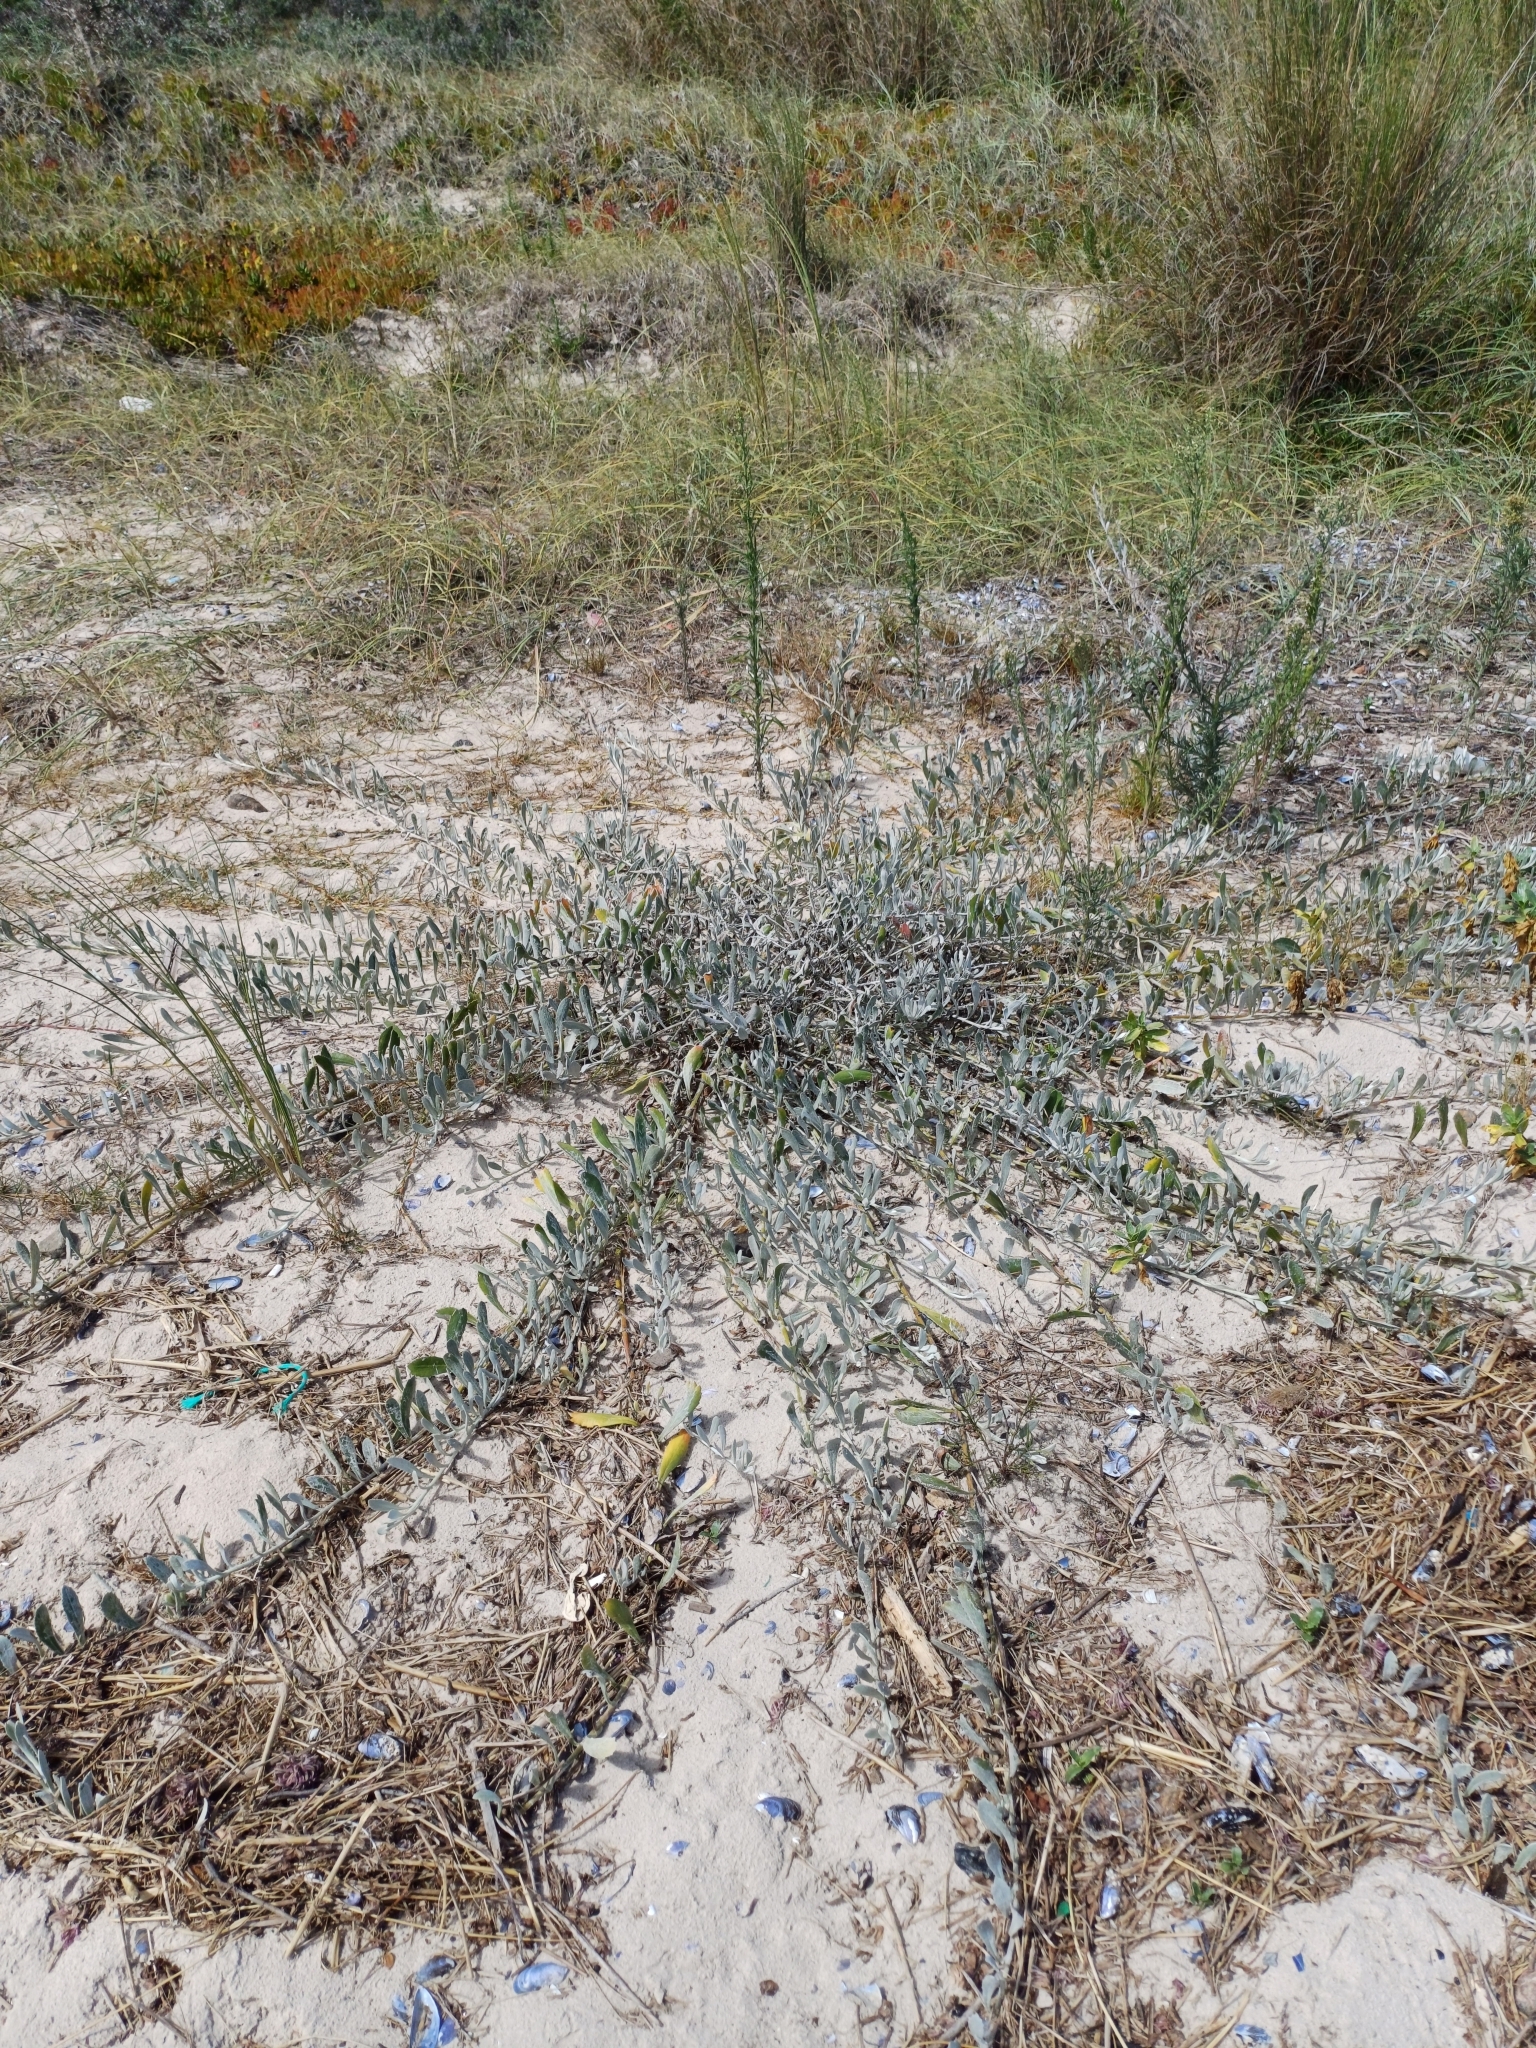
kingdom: Plantae
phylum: Tracheophyta
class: Magnoliopsida
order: Asterales
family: Asteraceae
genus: Senecio
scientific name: Senecio crassiflorus
